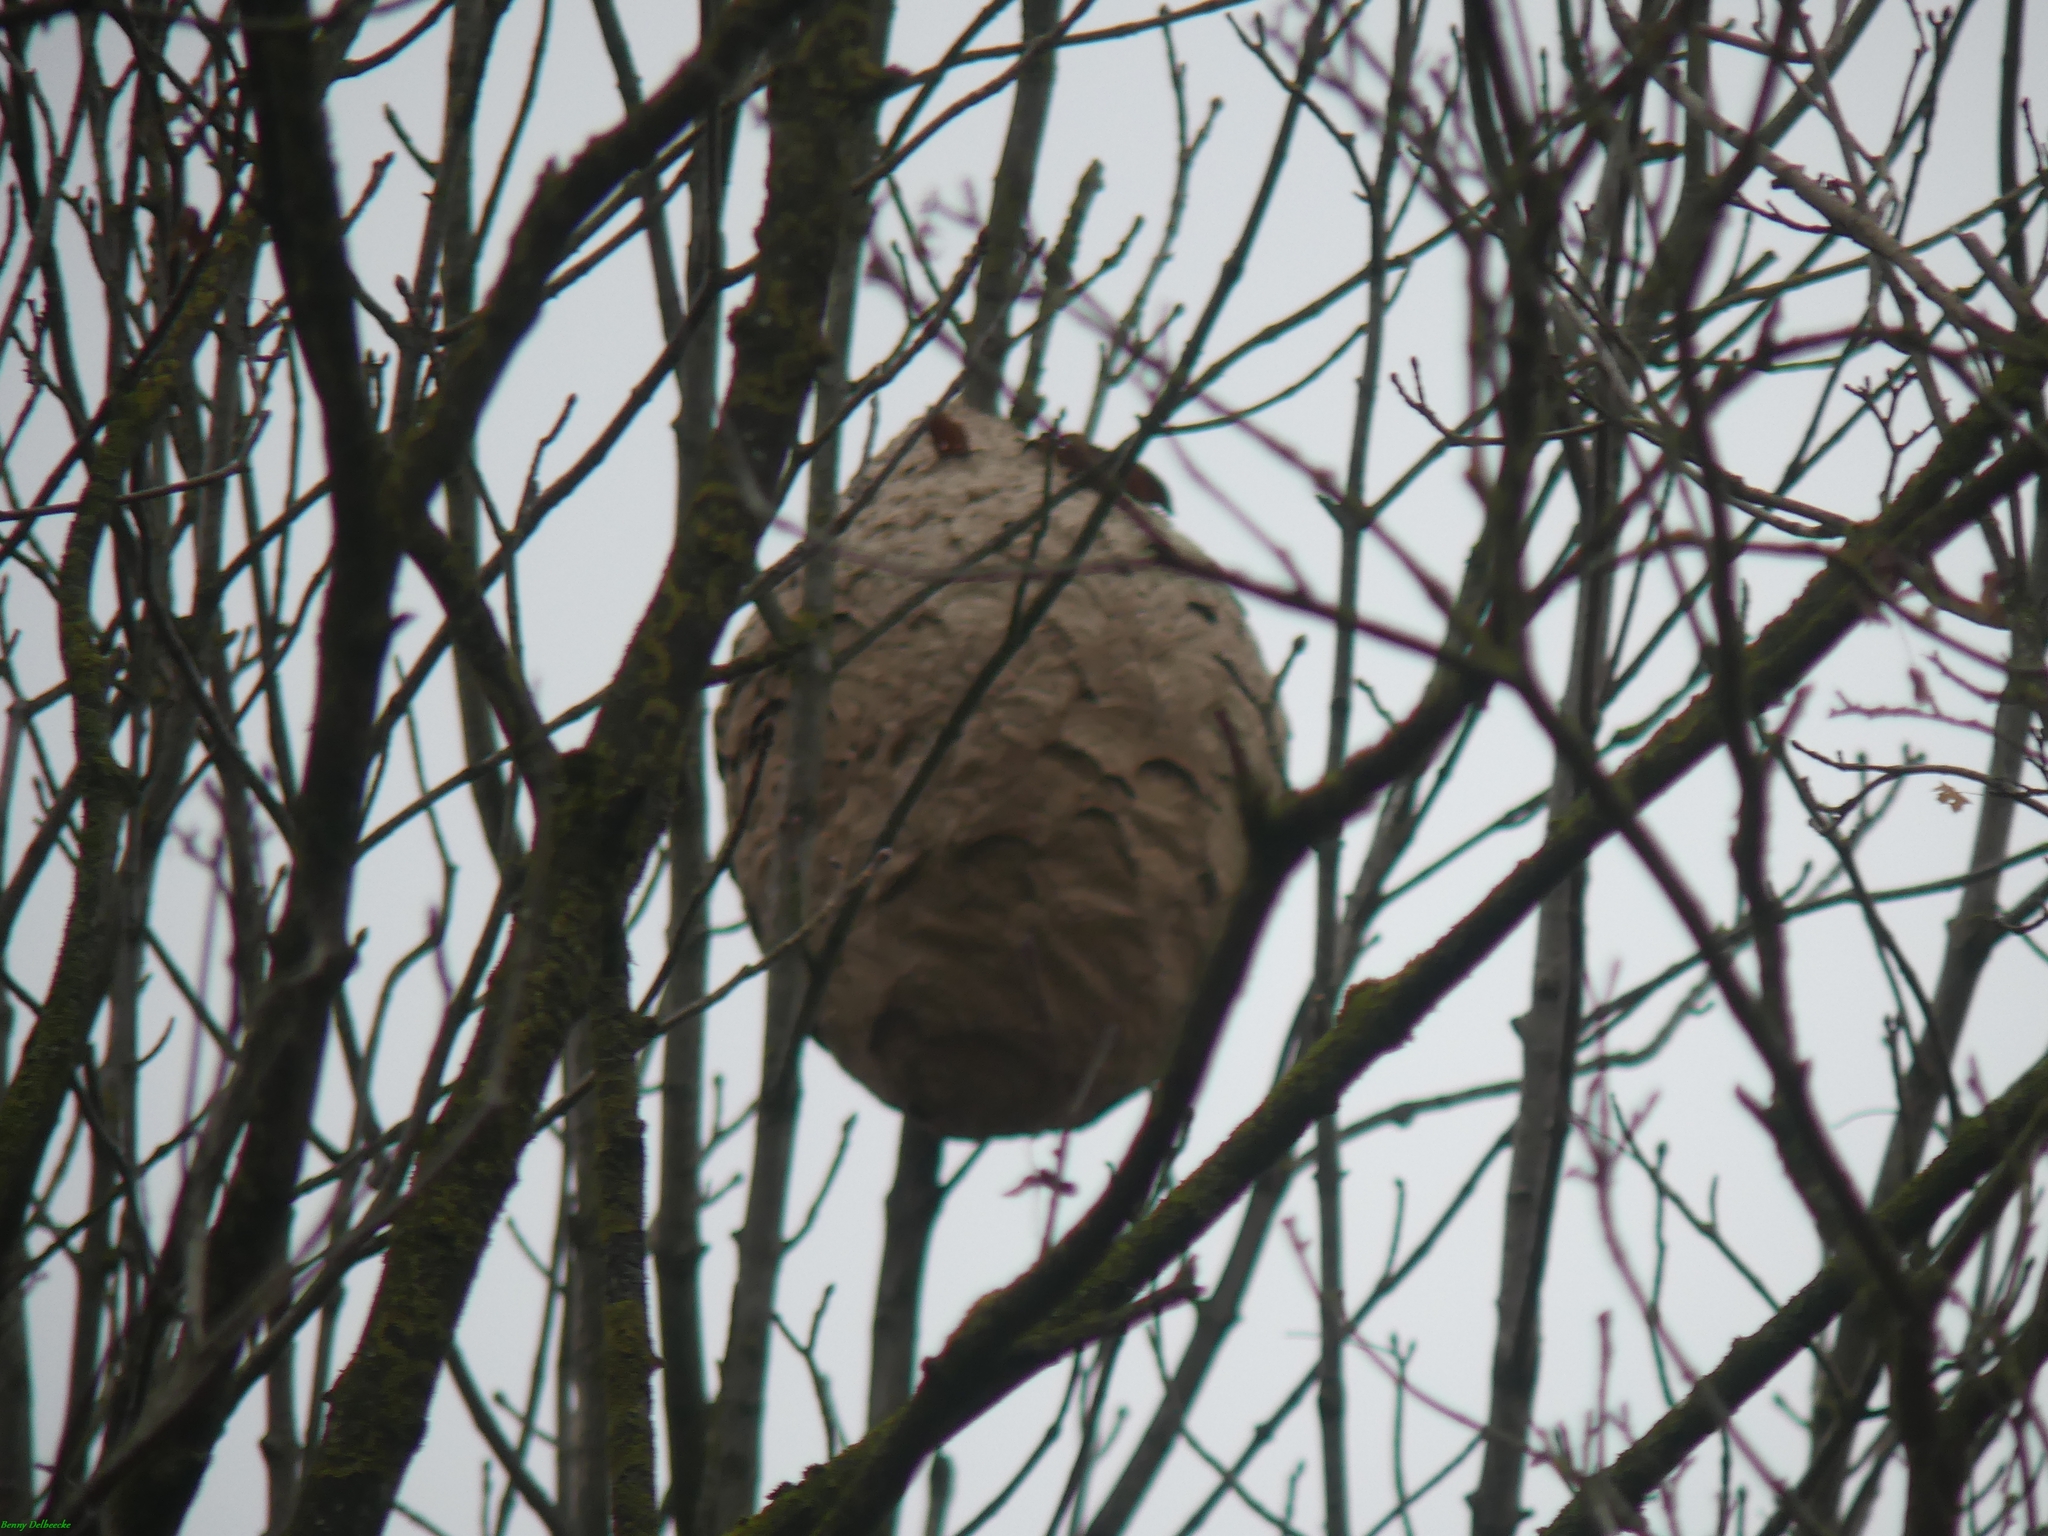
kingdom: Animalia
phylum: Arthropoda
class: Insecta
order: Hymenoptera
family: Vespidae
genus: Vespa
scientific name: Vespa velutina
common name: Asian hornet
